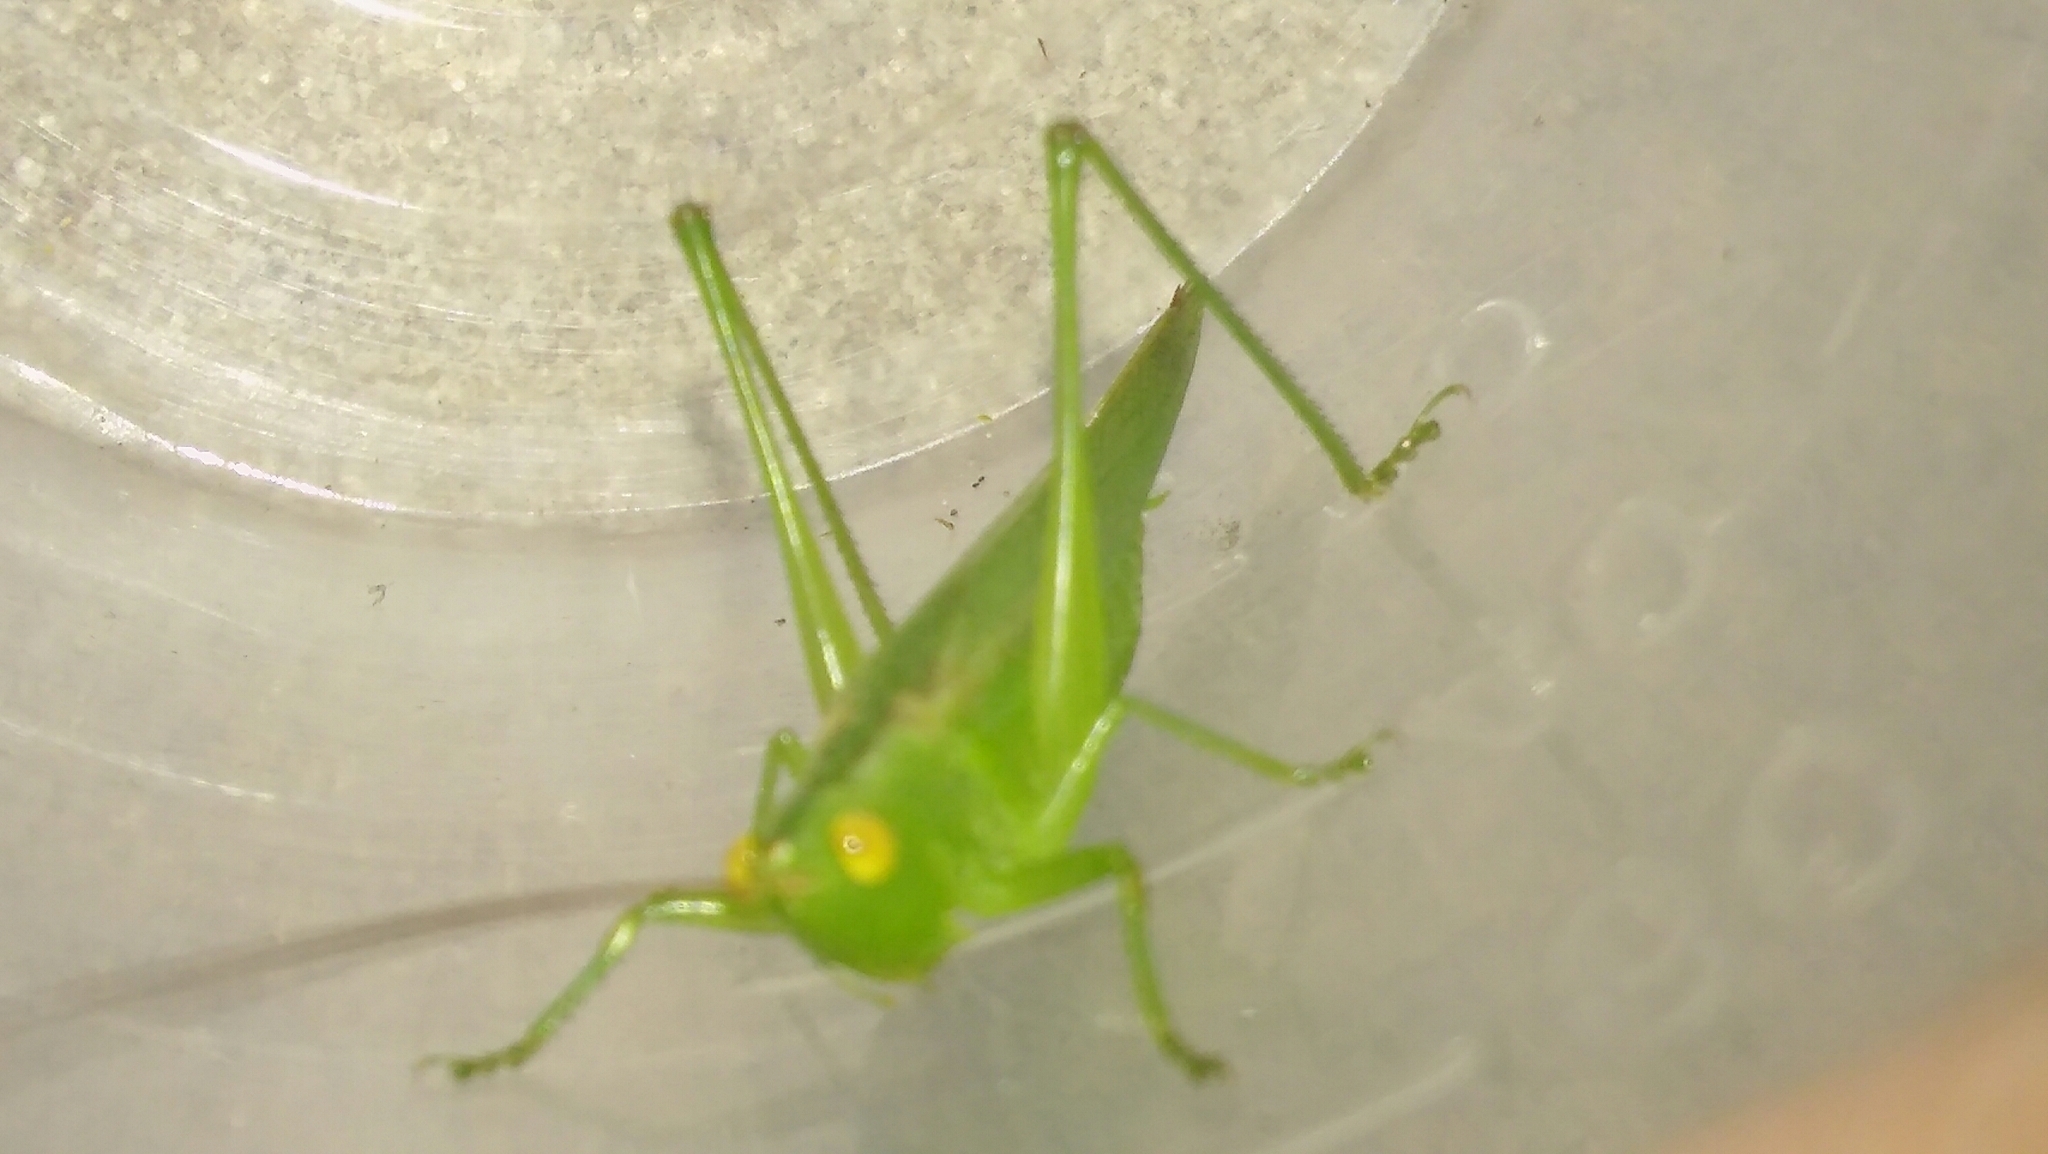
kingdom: Animalia
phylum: Arthropoda
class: Insecta
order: Orthoptera
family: Tettigoniidae
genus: Conocephalus
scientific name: Conocephalus longipes
